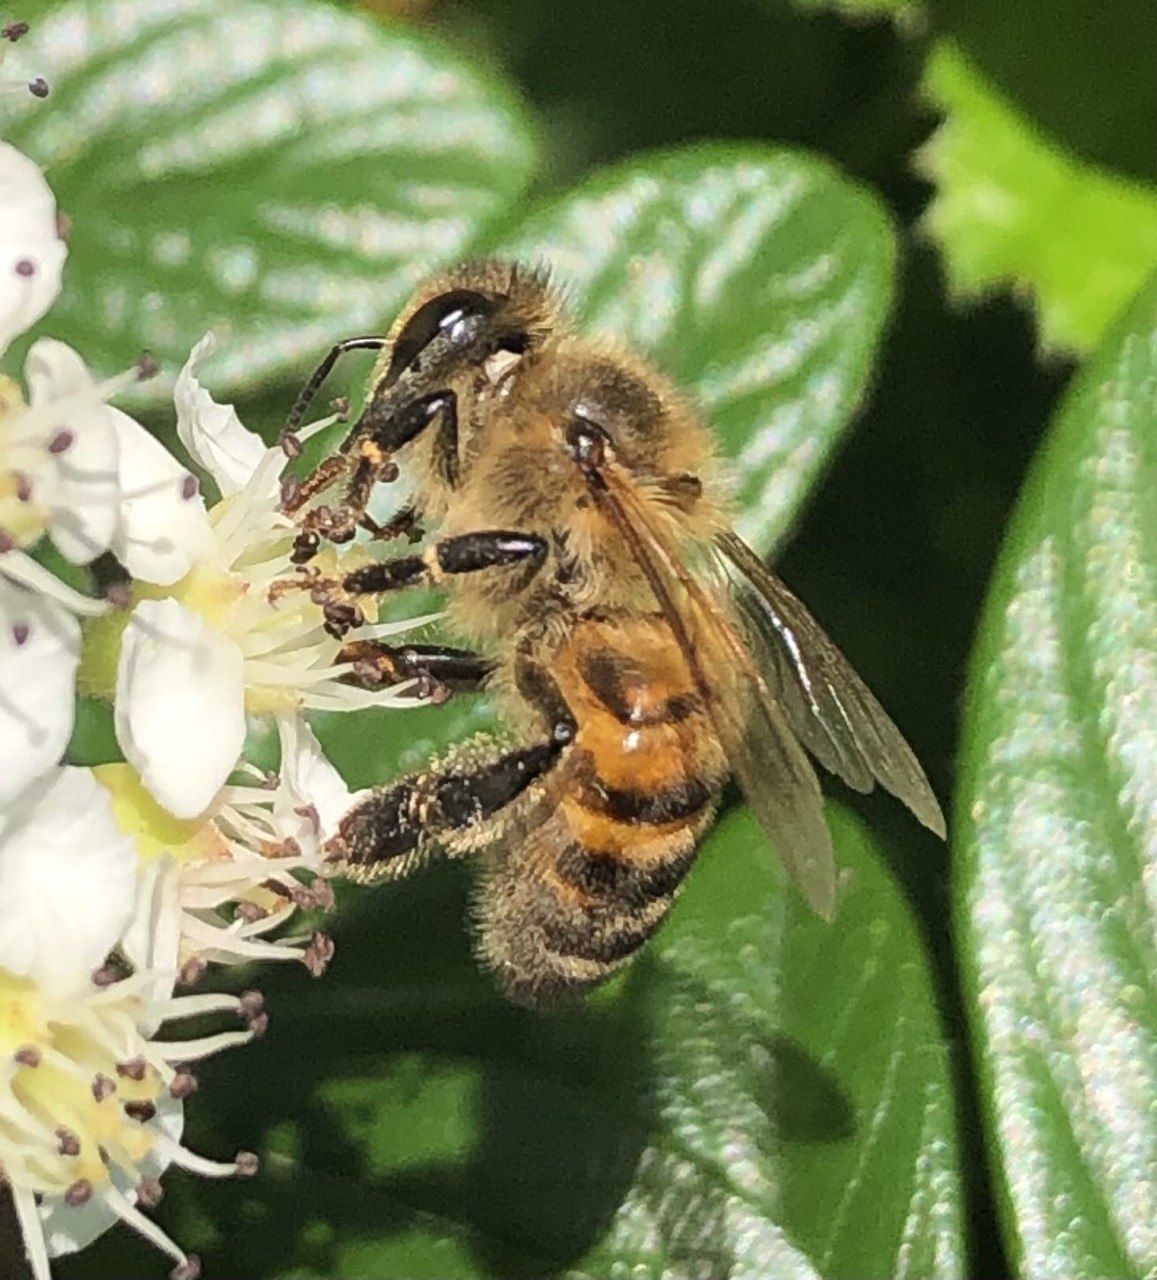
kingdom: Animalia
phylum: Arthropoda
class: Insecta
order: Hymenoptera
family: Apidae
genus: Apis
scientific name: Apis mellifera
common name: Honey bee
